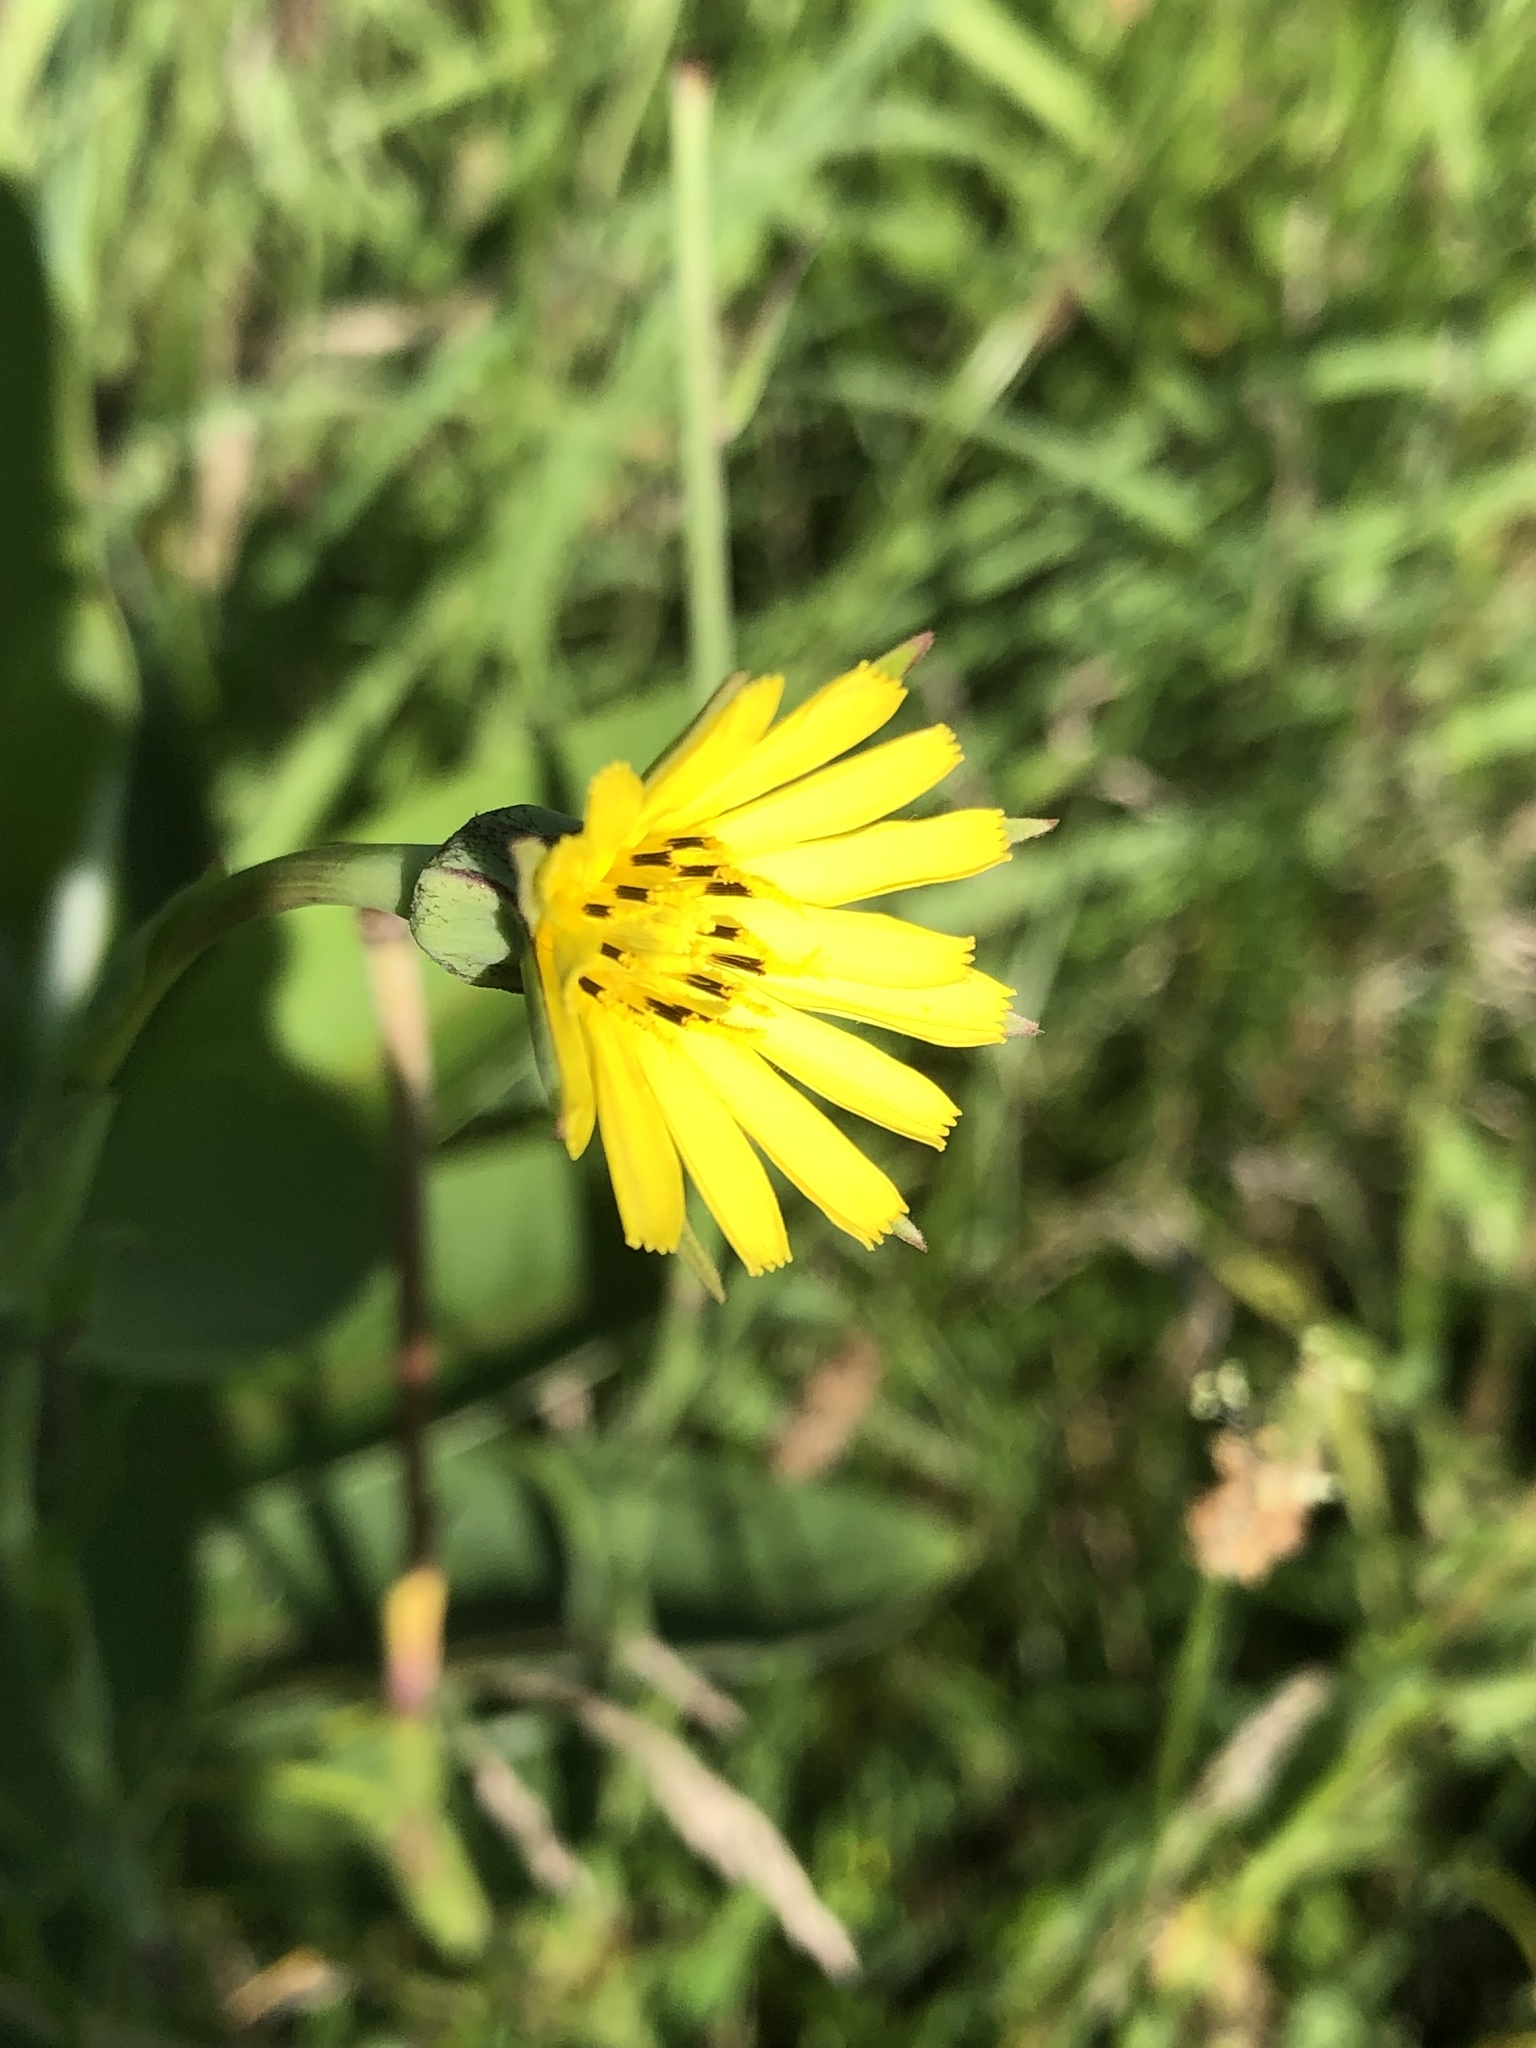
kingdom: Plantae
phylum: Tracheophyta
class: Magnoliopsida
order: Asterales
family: Asteraceae
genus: Tragopogon
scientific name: Tragopogon pratensis
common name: Goat's-beard
